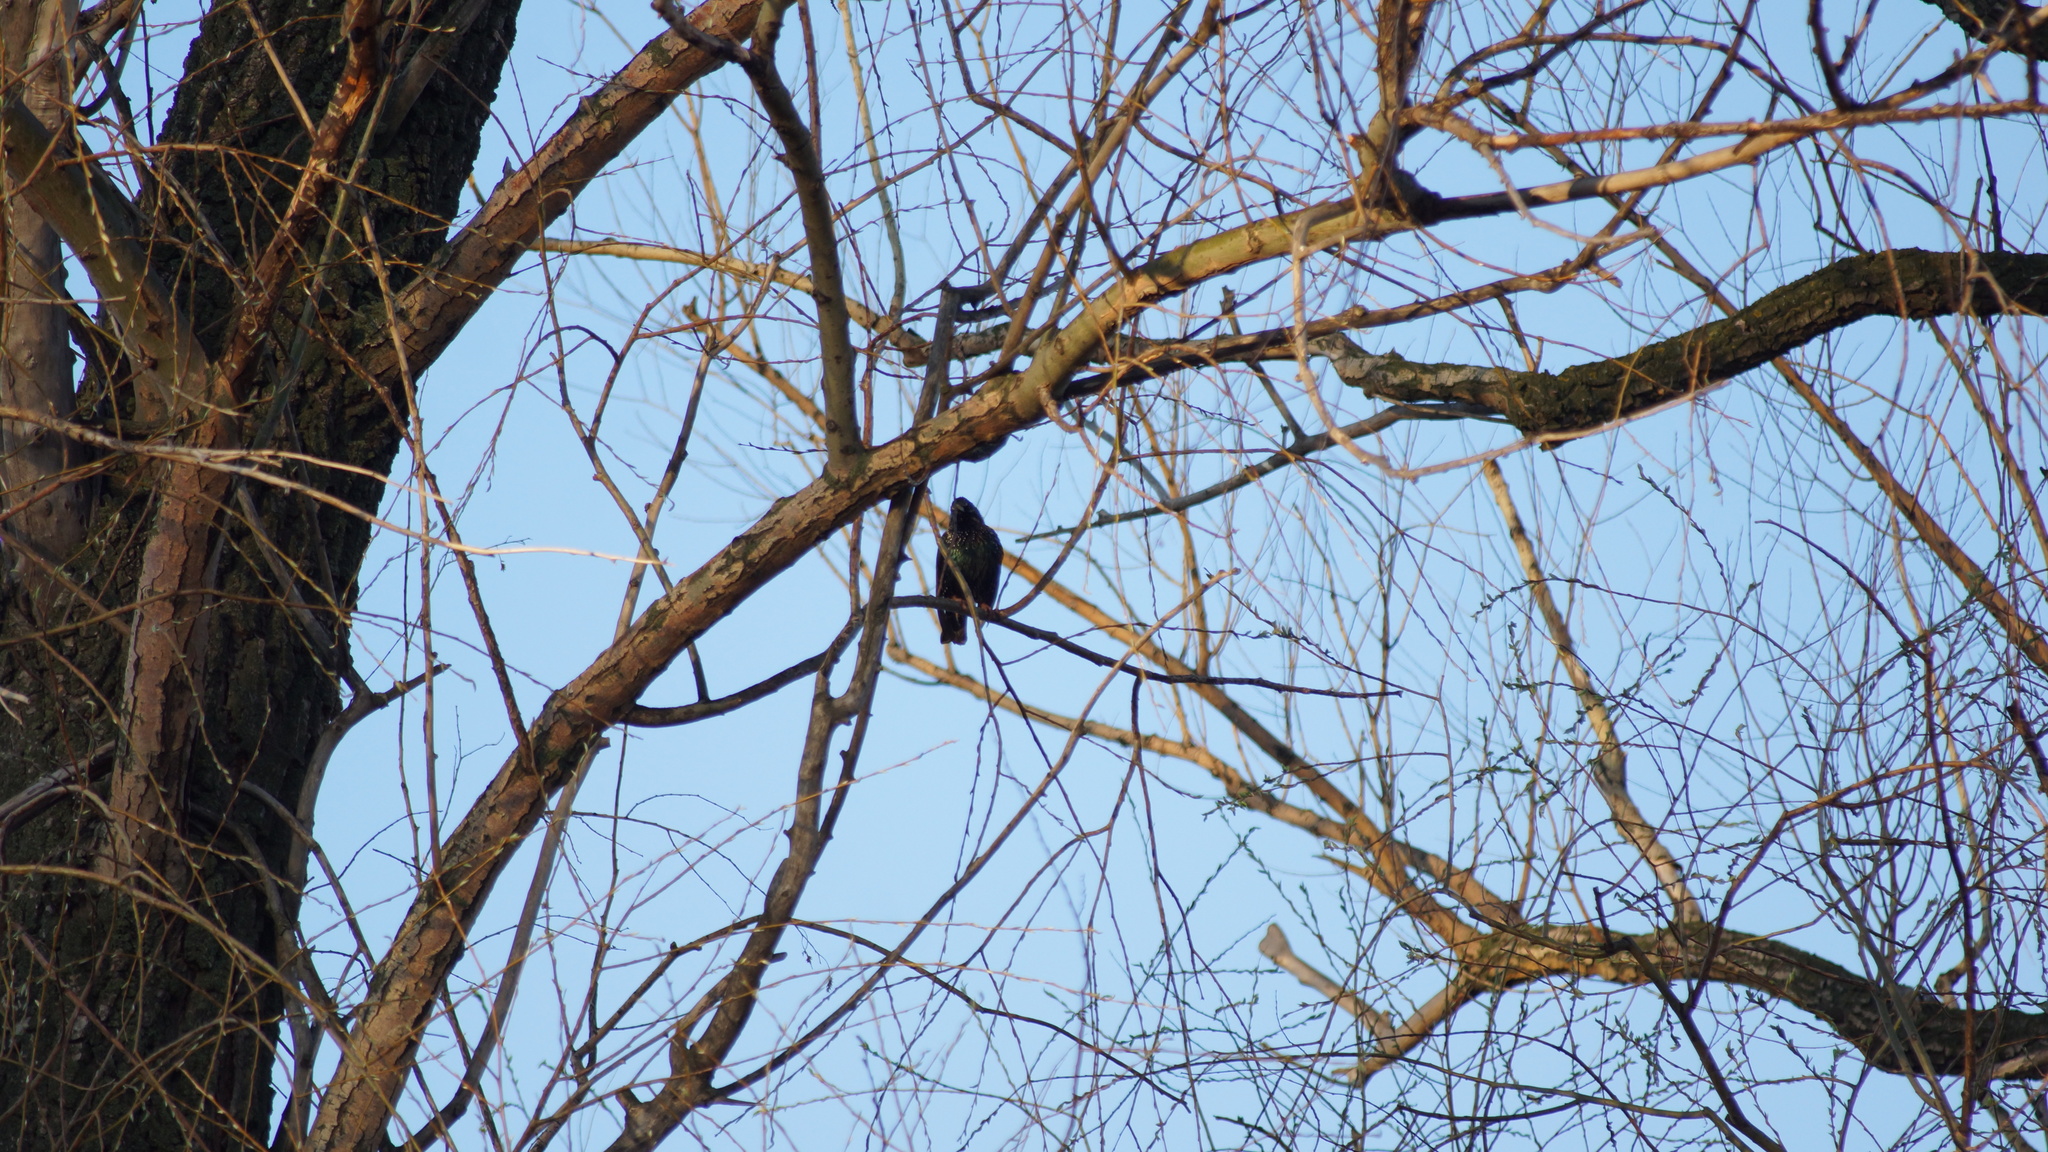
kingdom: Animalia
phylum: Chordata
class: Aves
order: Passeriformes
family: Sturnidae
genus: Sturnus
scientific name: Sturnus vulgaris
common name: Common starling
